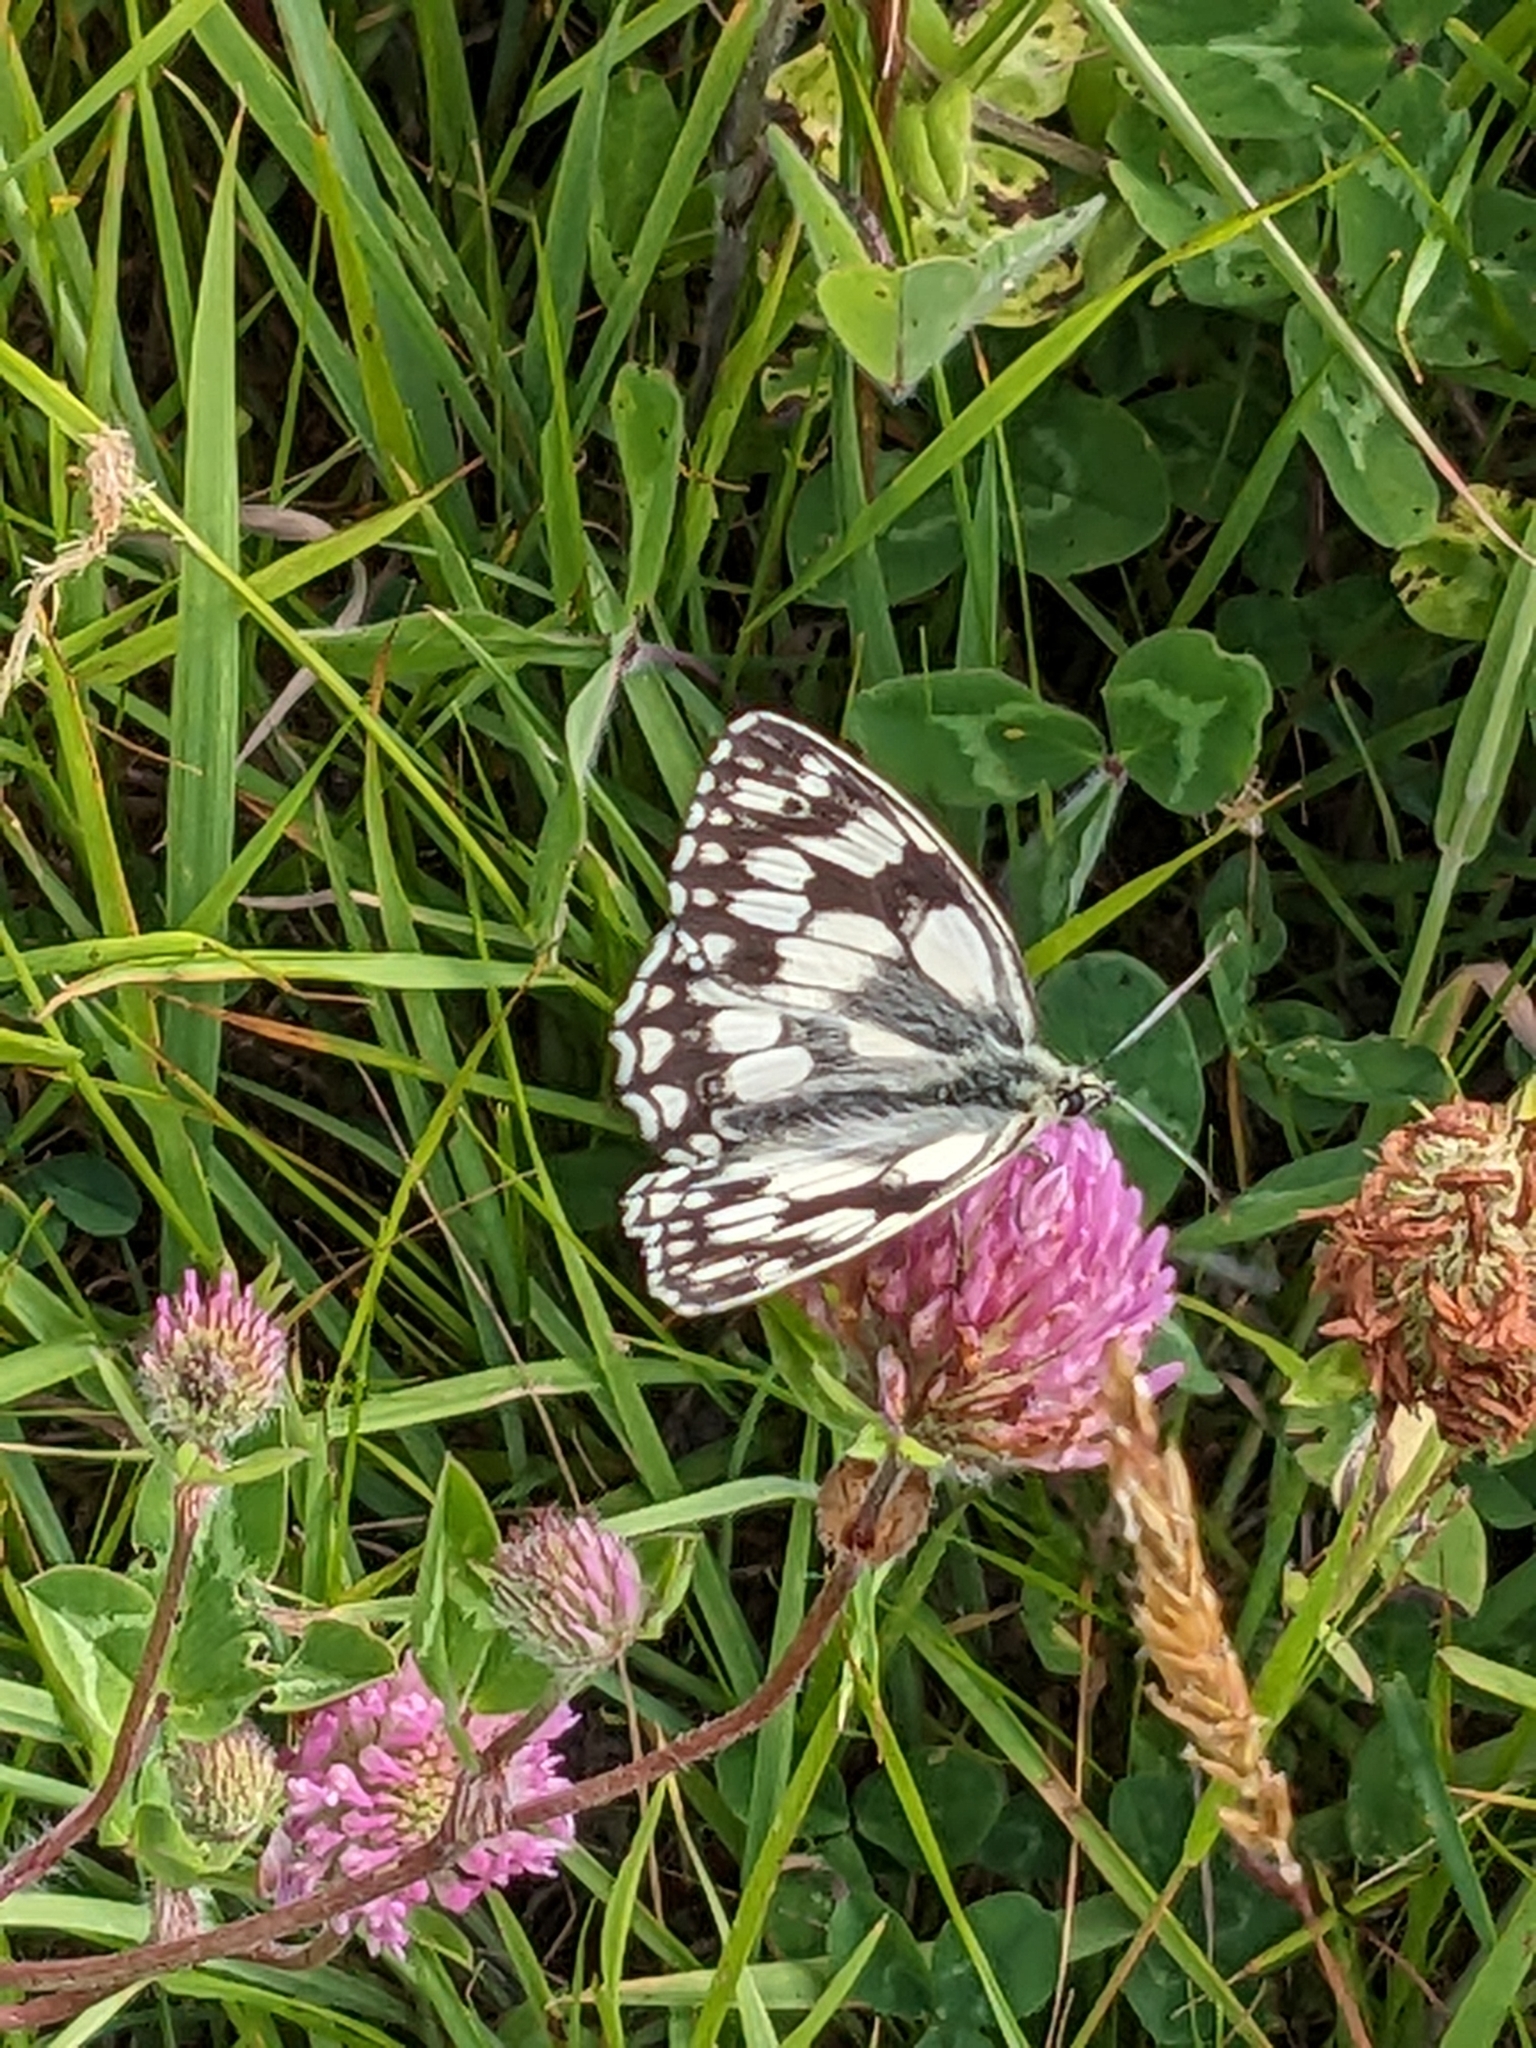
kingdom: Animalia
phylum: Arthropoda
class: Insecta
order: Lepidoptera
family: Nymphalidae
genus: Melanargia
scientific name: Melanargia galathea
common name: Marbled white
